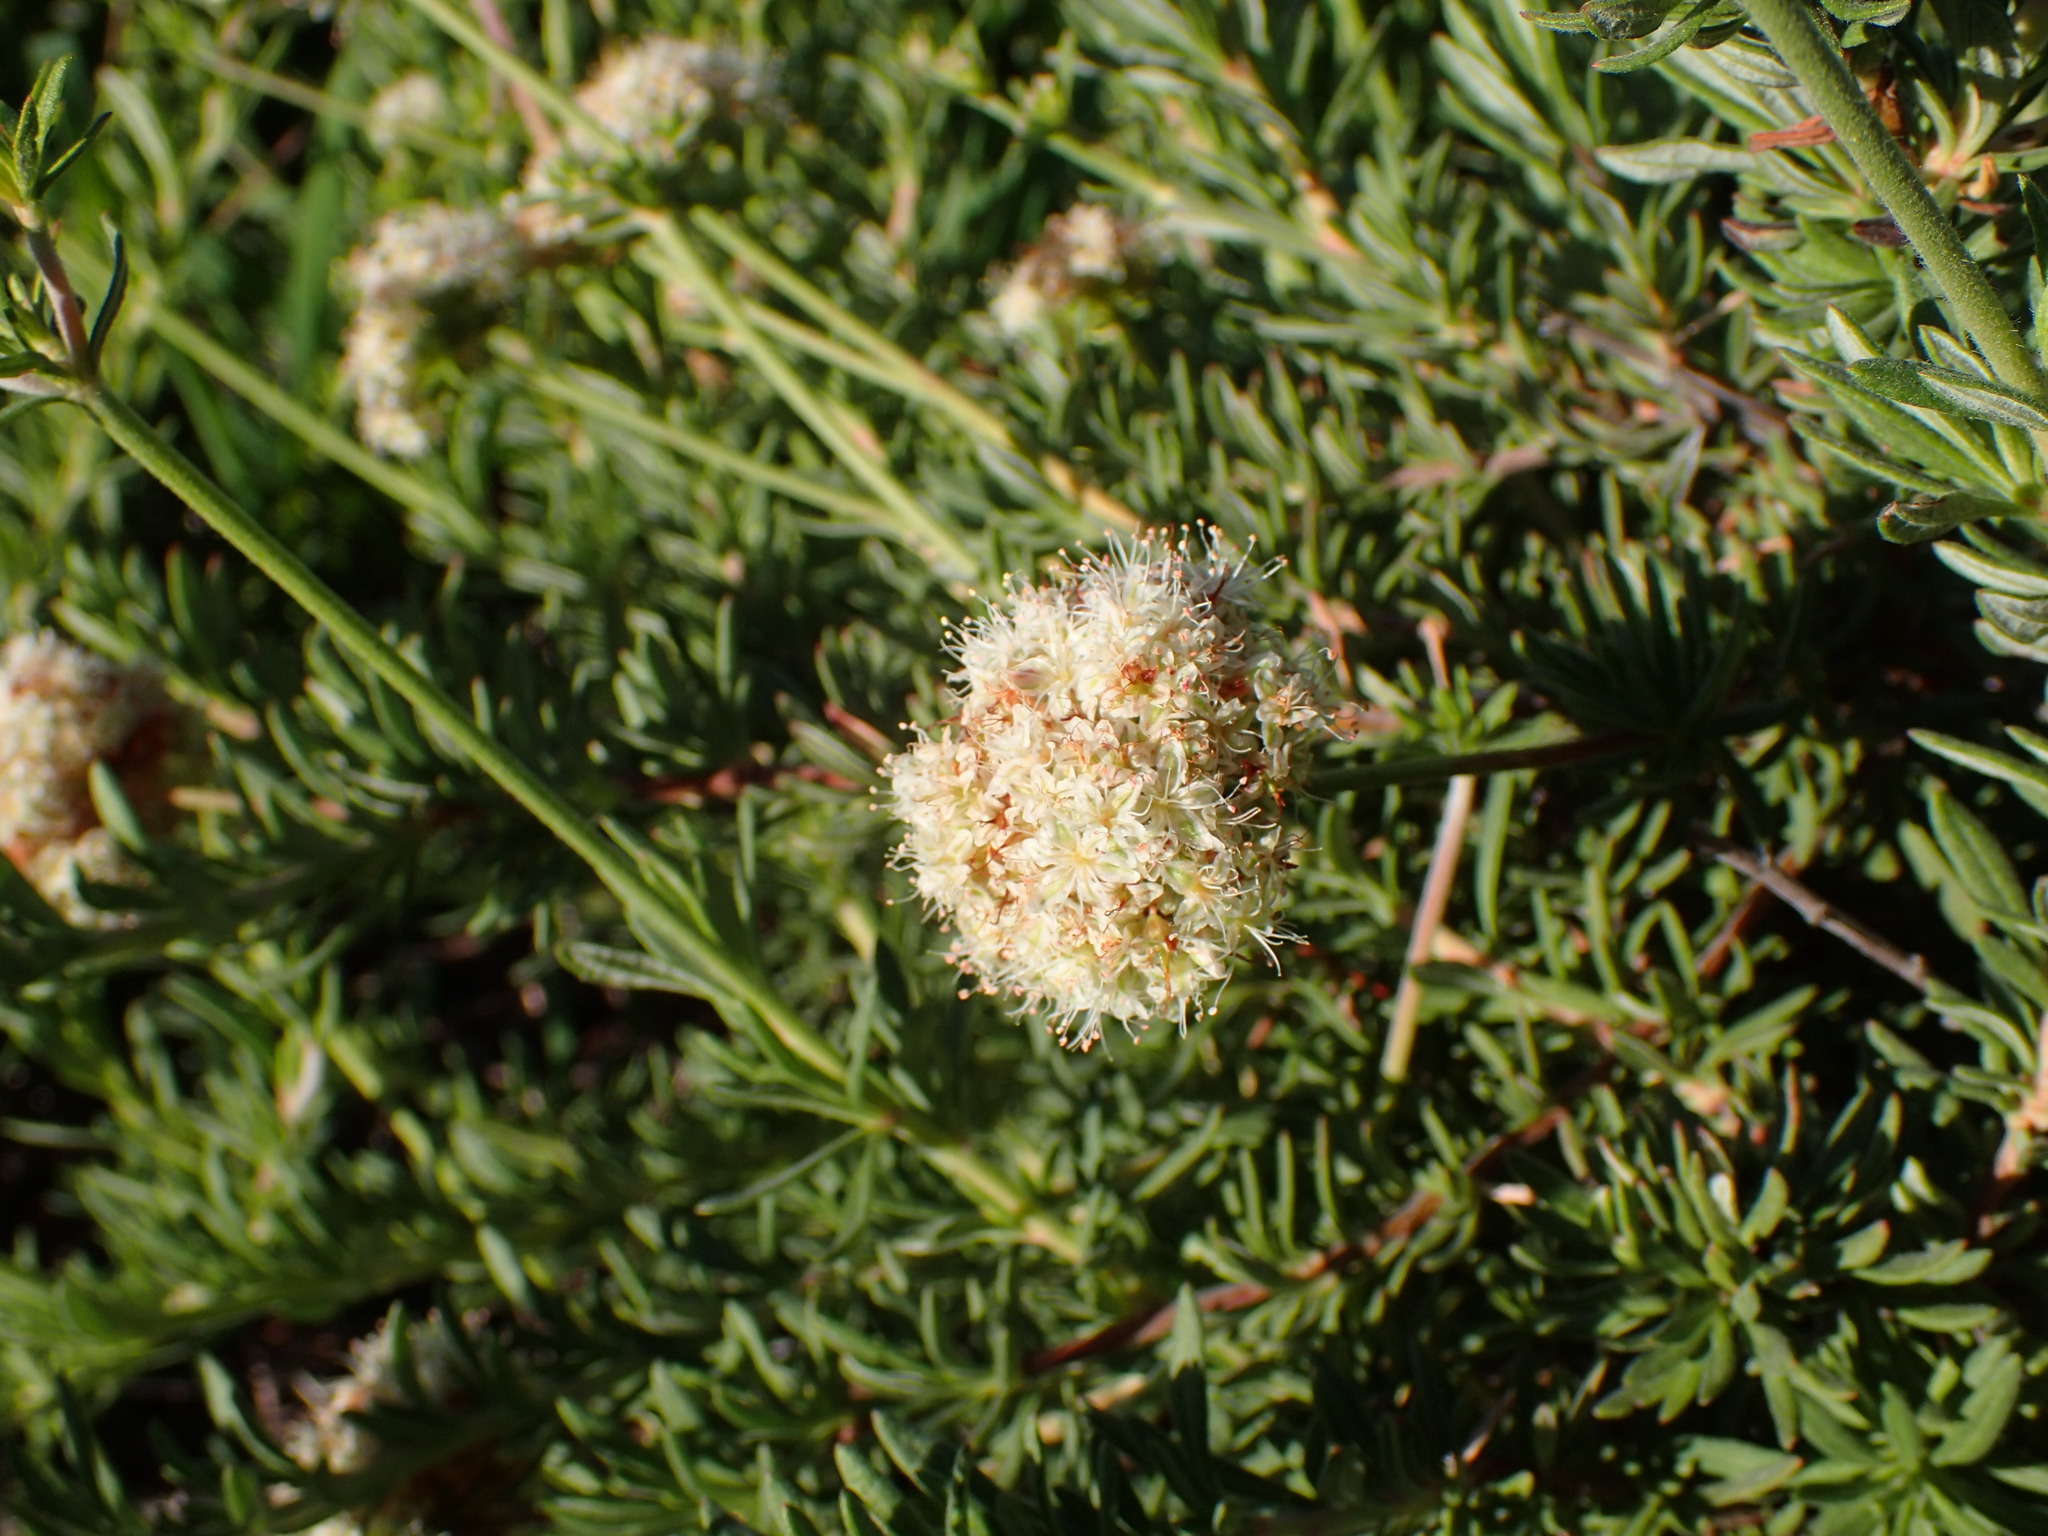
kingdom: Plantae
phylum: Tracheophyta
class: Magnoliopsida
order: Caryophyllales
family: Polygonaceae
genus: Eriogonum
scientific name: Eriogonum fasciculatum
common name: California wild buckwheat
